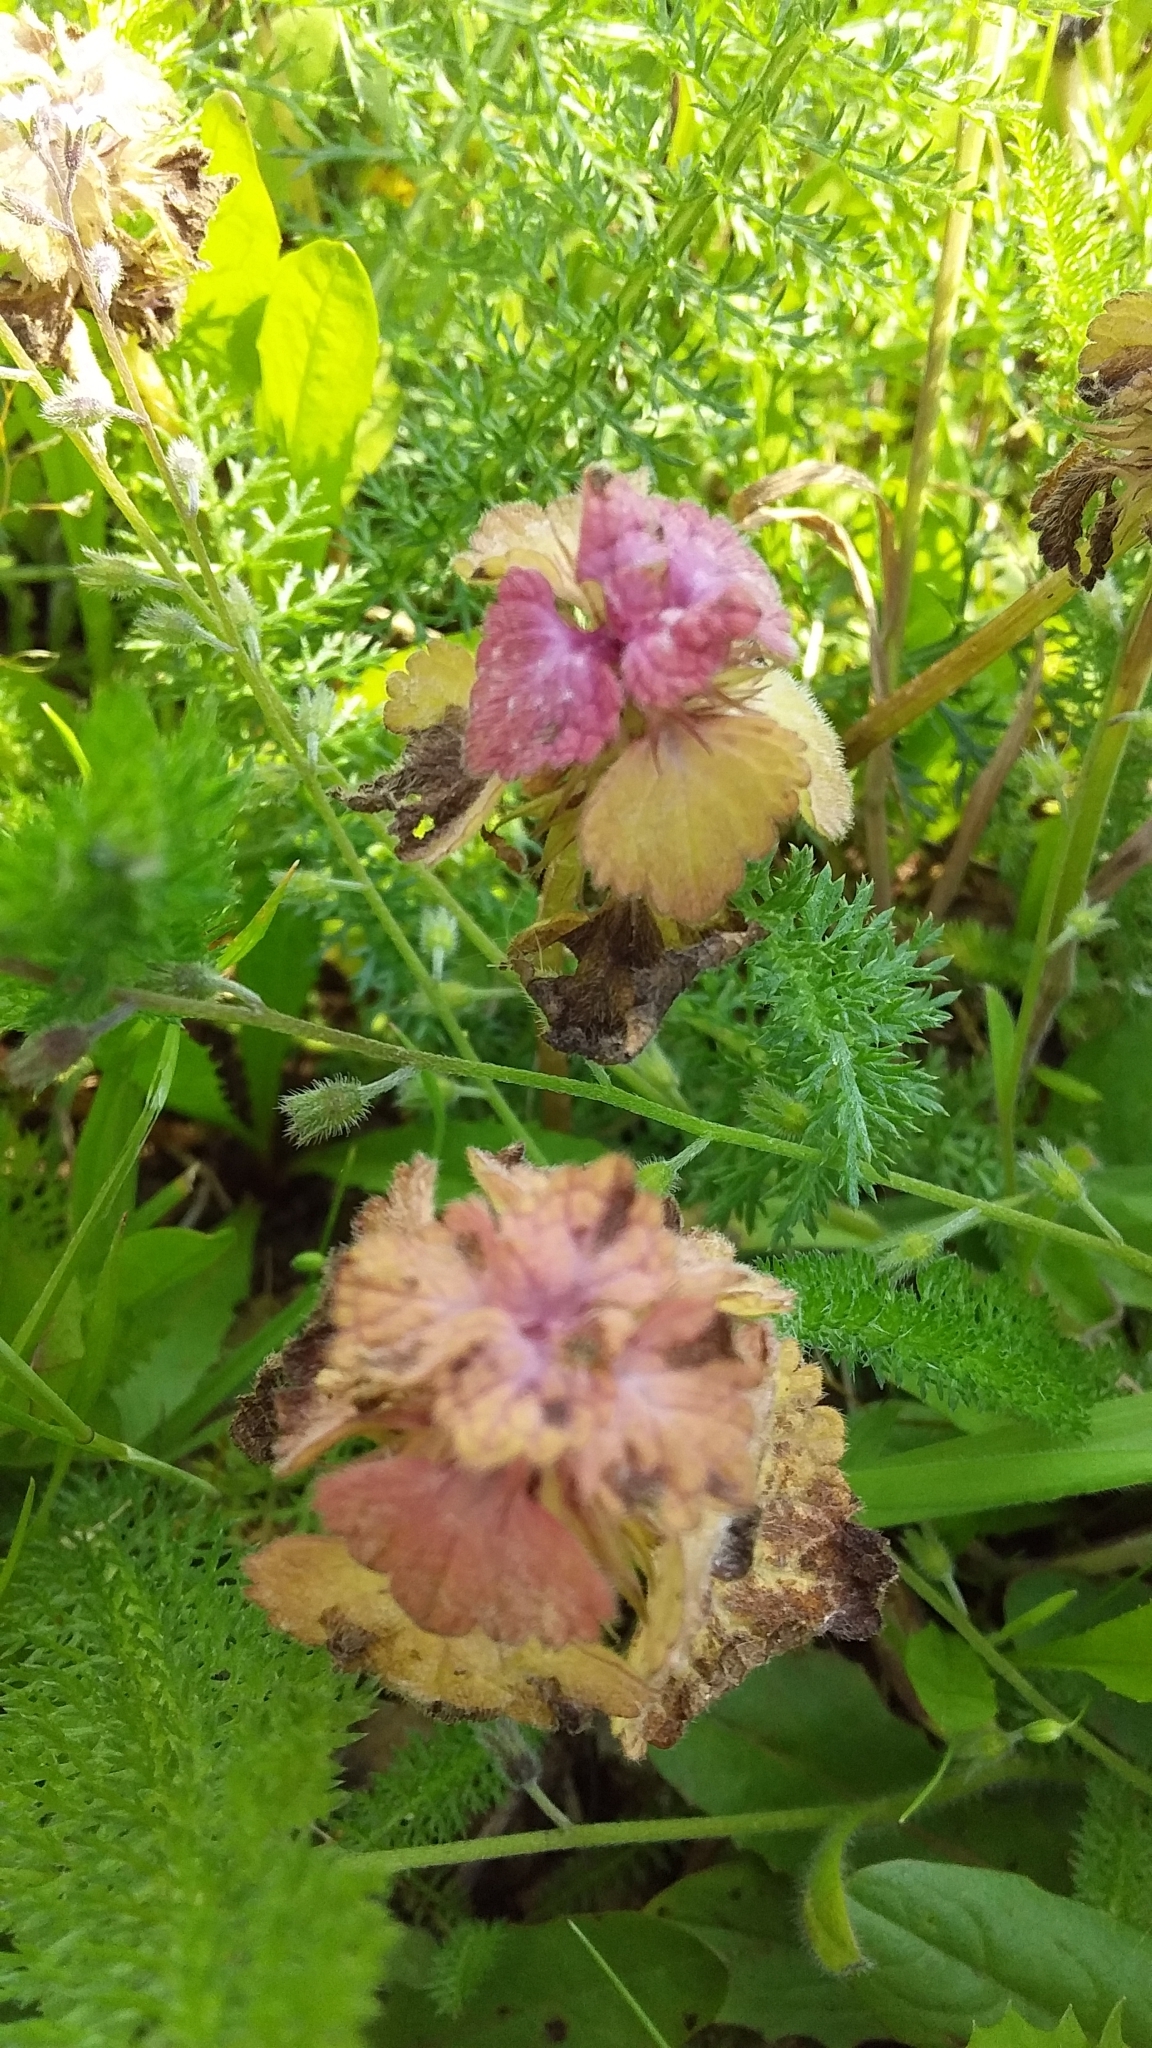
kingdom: Plantae
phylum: Tracheophyta
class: Magnoliopsida
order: Lamiales
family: Lamiaceae
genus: Lamium
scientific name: Lamium purpureum
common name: Red dead-nettle
